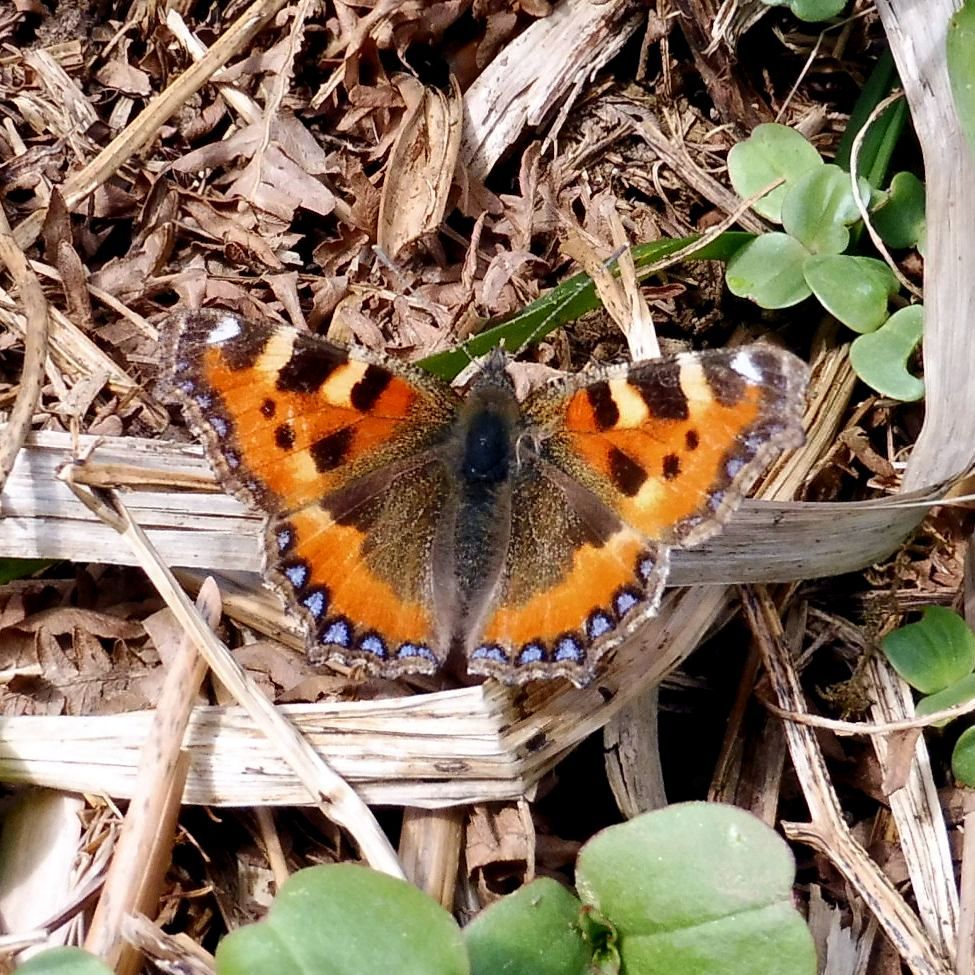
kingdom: Animalia
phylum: Arthropoda
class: Insecta
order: Lepidoptera
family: Nymphalidae
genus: Aglais
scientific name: Aglais urticae
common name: Small tortoiseshell
